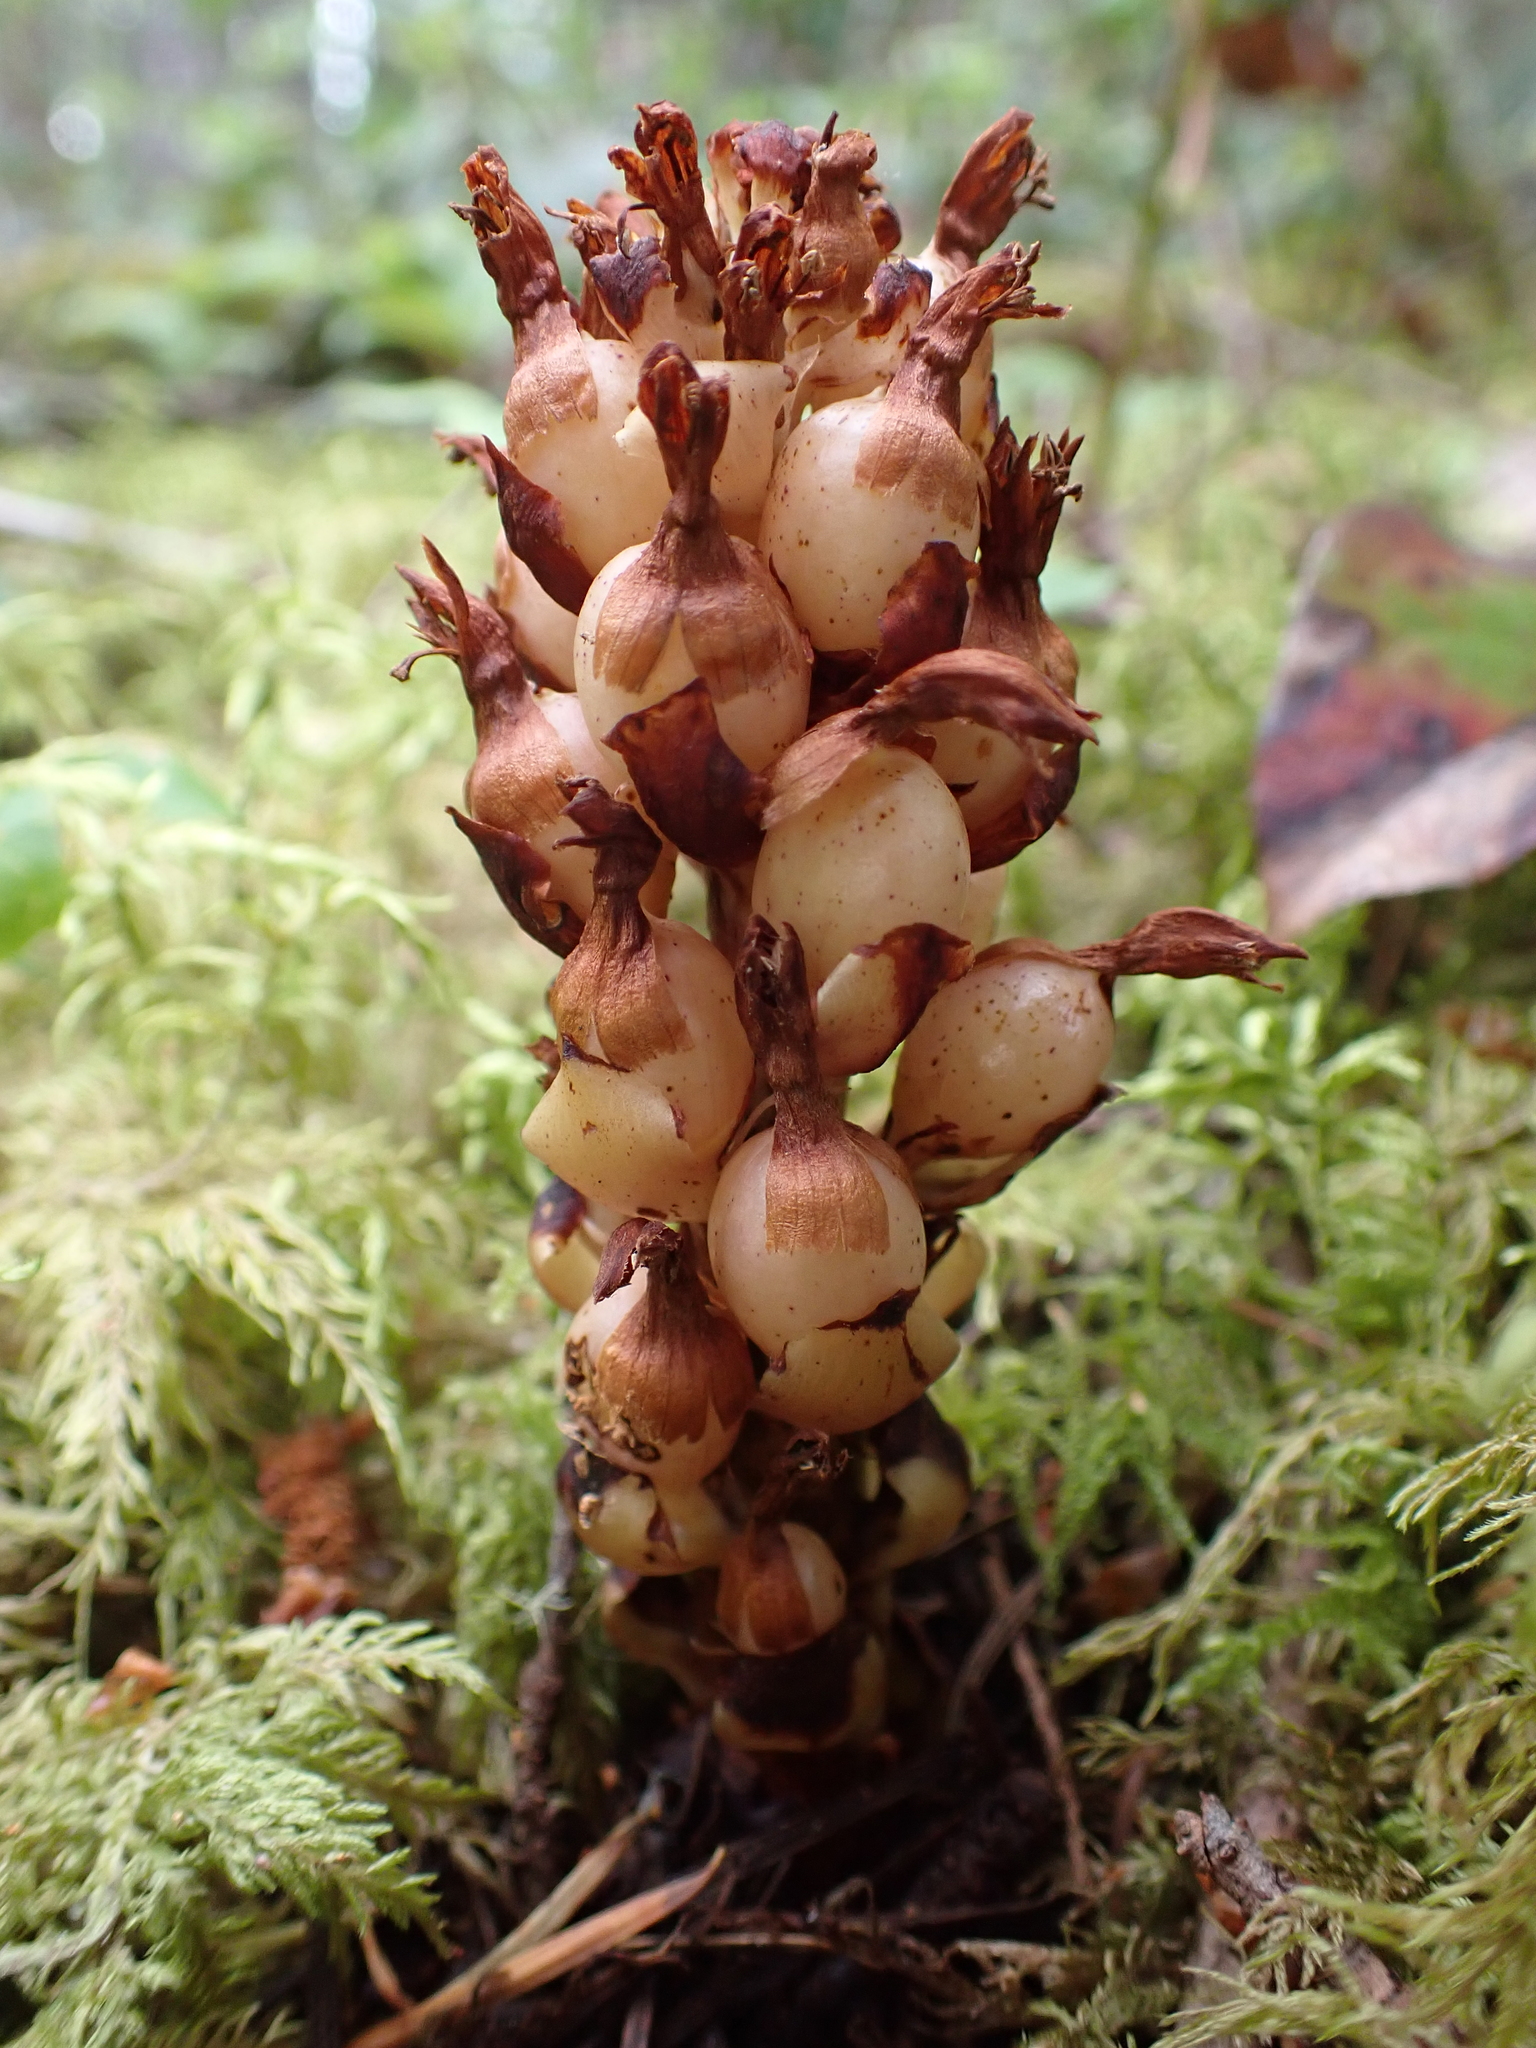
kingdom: Plantae
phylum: Tracheophyta
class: Magnoliopsida
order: Lamiales
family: Orobanchaceae
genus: Kopsiopsis
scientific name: Kopsiopsis hookeri
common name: Hooker's groundcone
